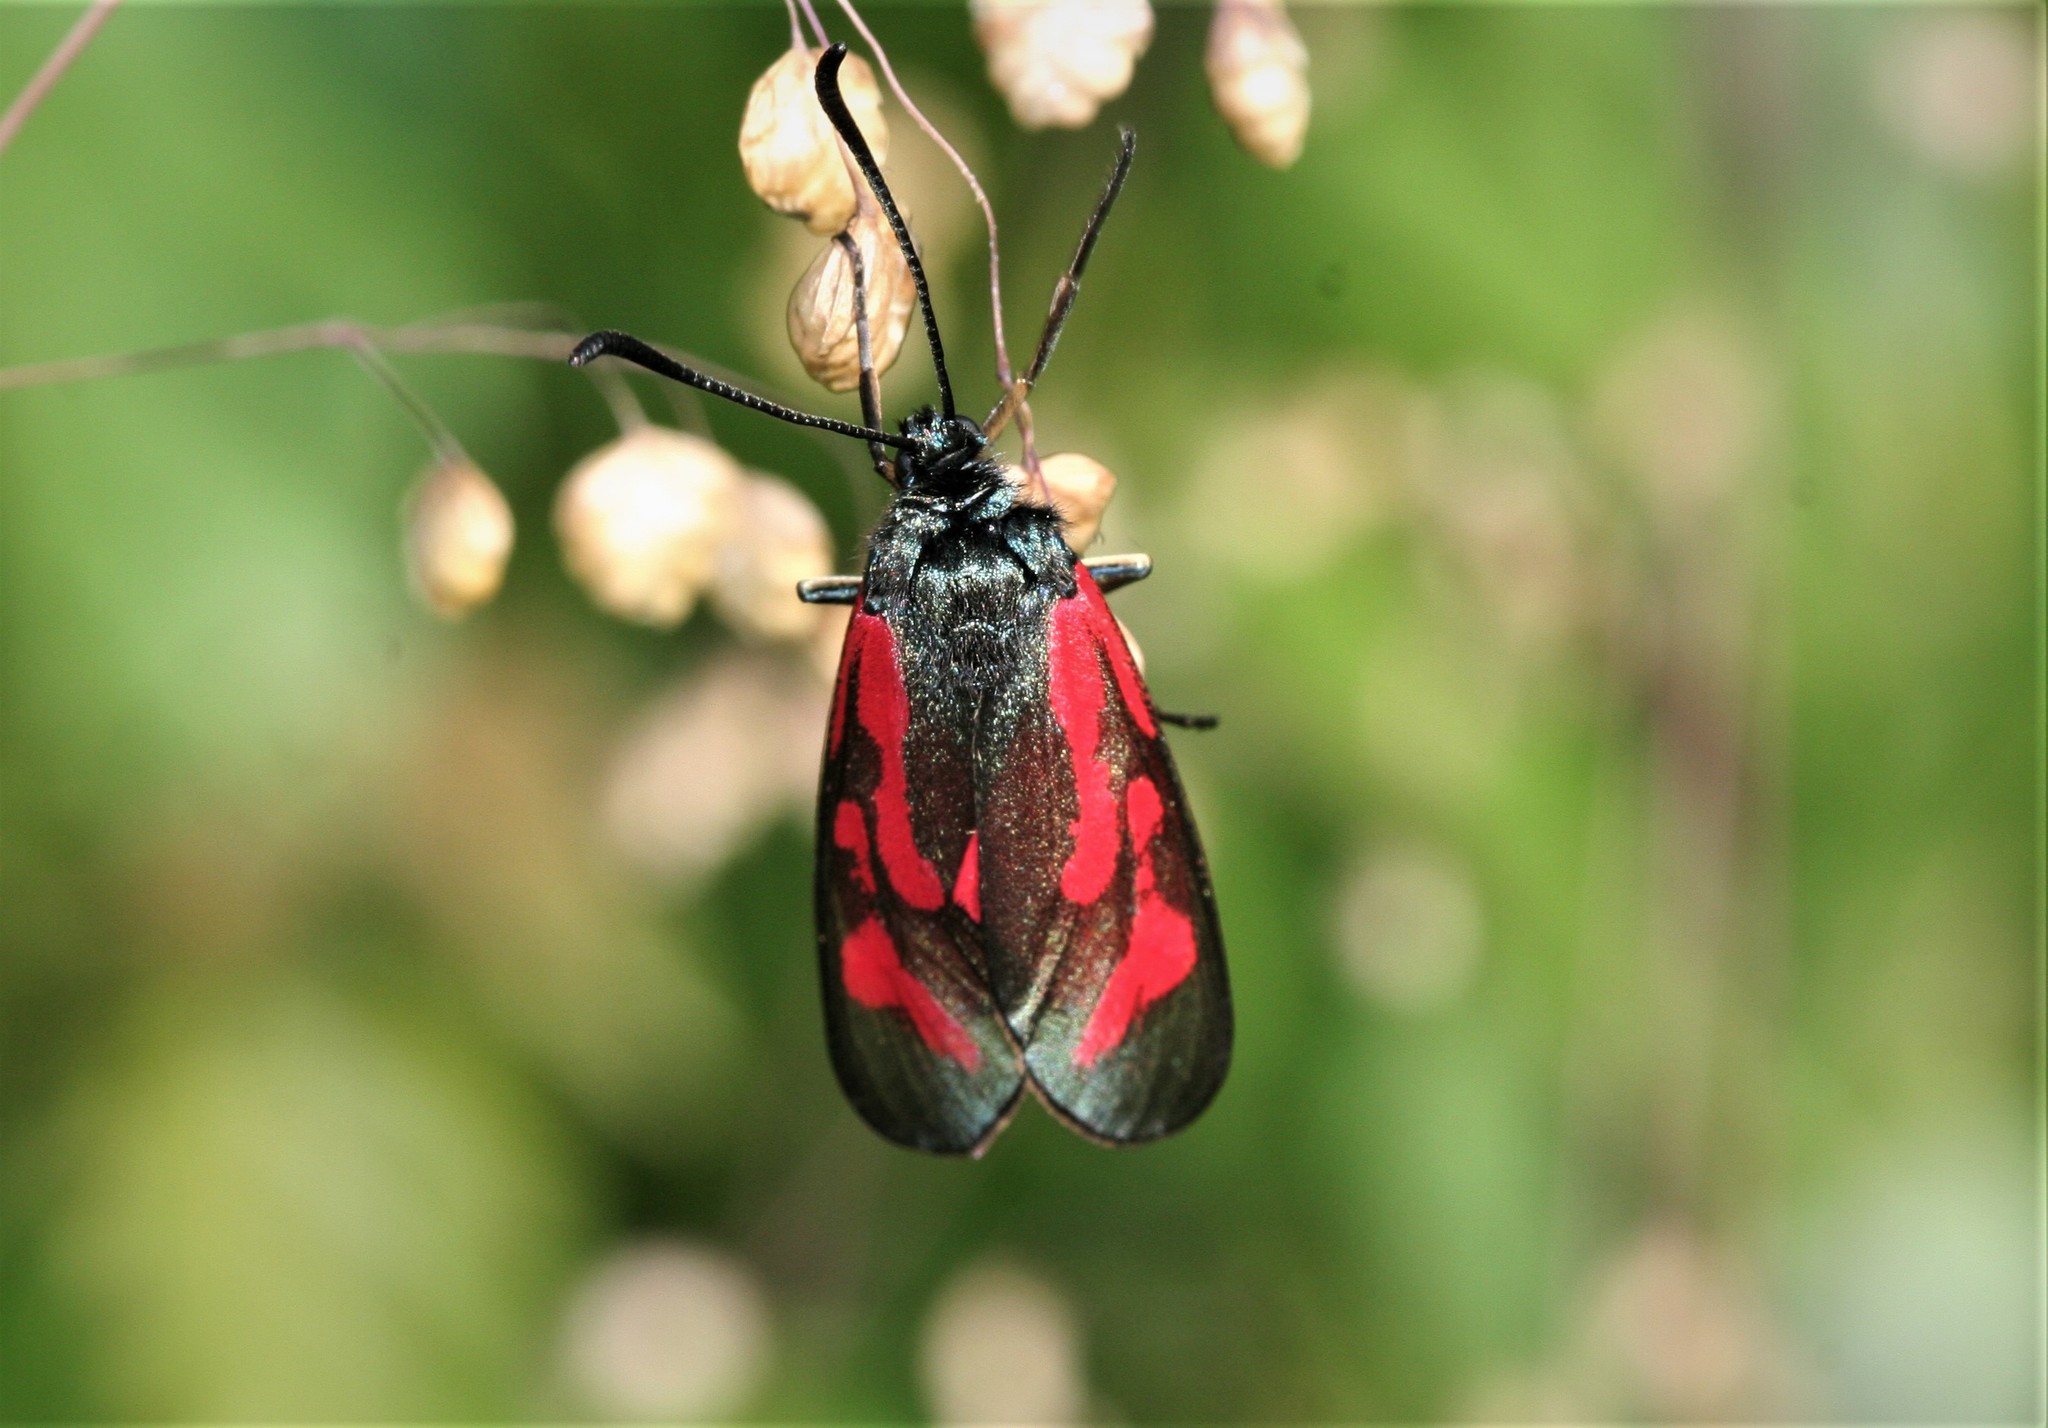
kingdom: Animalia
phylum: Arthropoda
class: Insecta
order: Lepidoptera
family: Zygaenidae
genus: Zygaena
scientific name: Zygaena minos
